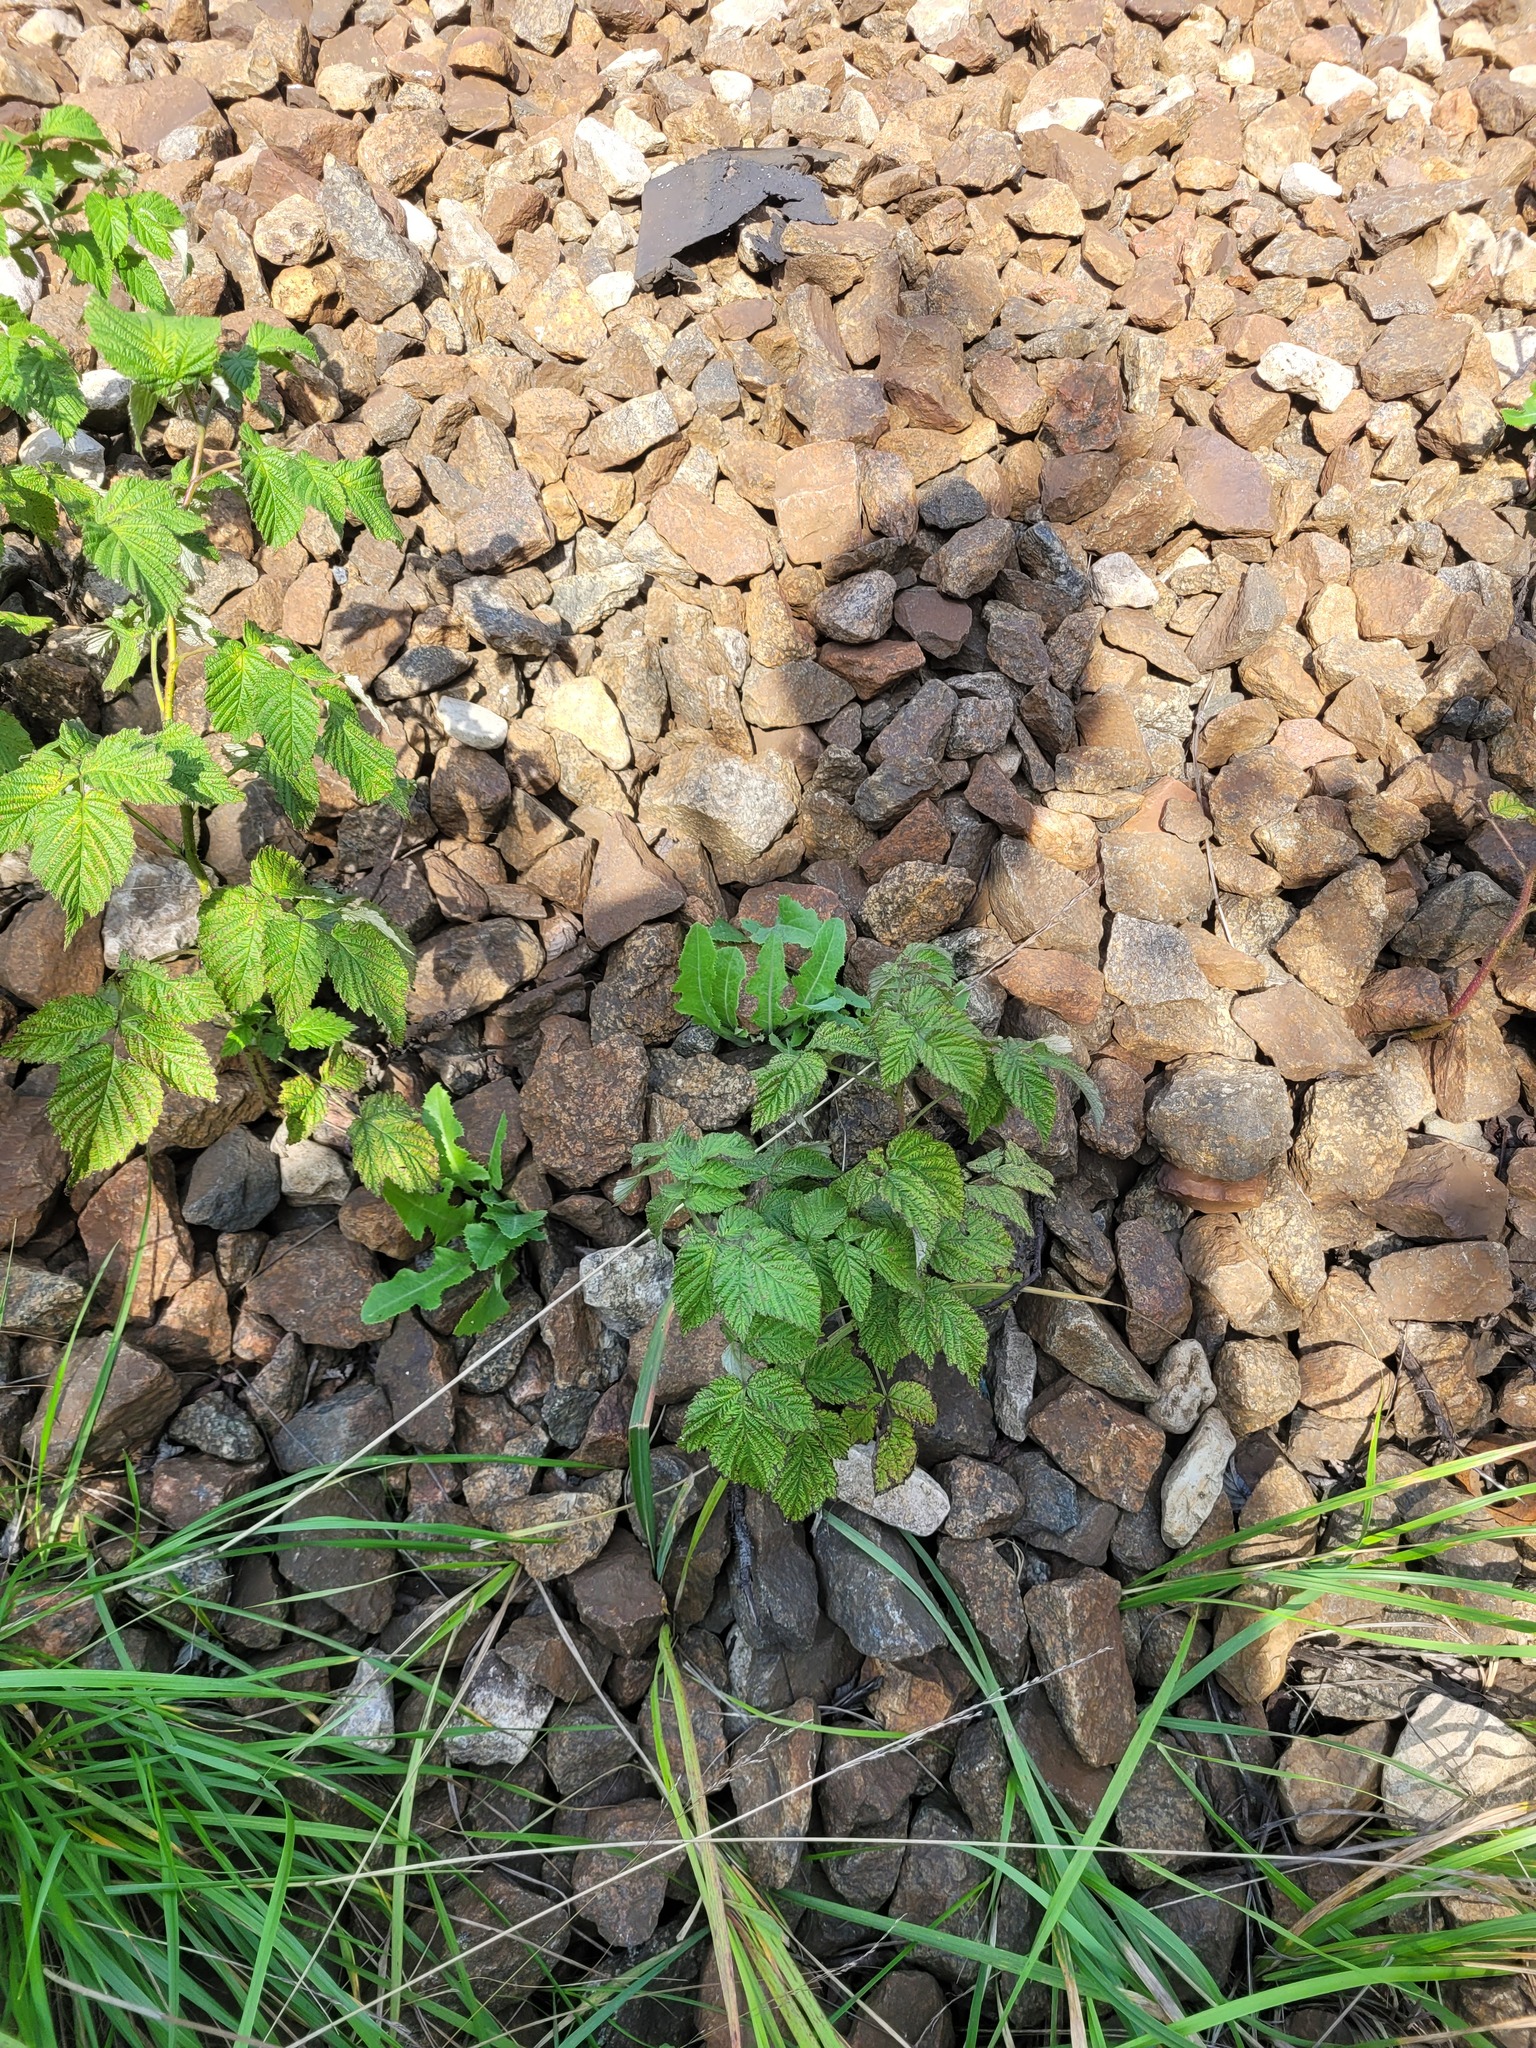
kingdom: Plantae
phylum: Tracheophyta
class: Magnoliopsida
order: Rosales
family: Rosaceae
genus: Rubus
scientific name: Rubus idaeus
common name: Raspberry
